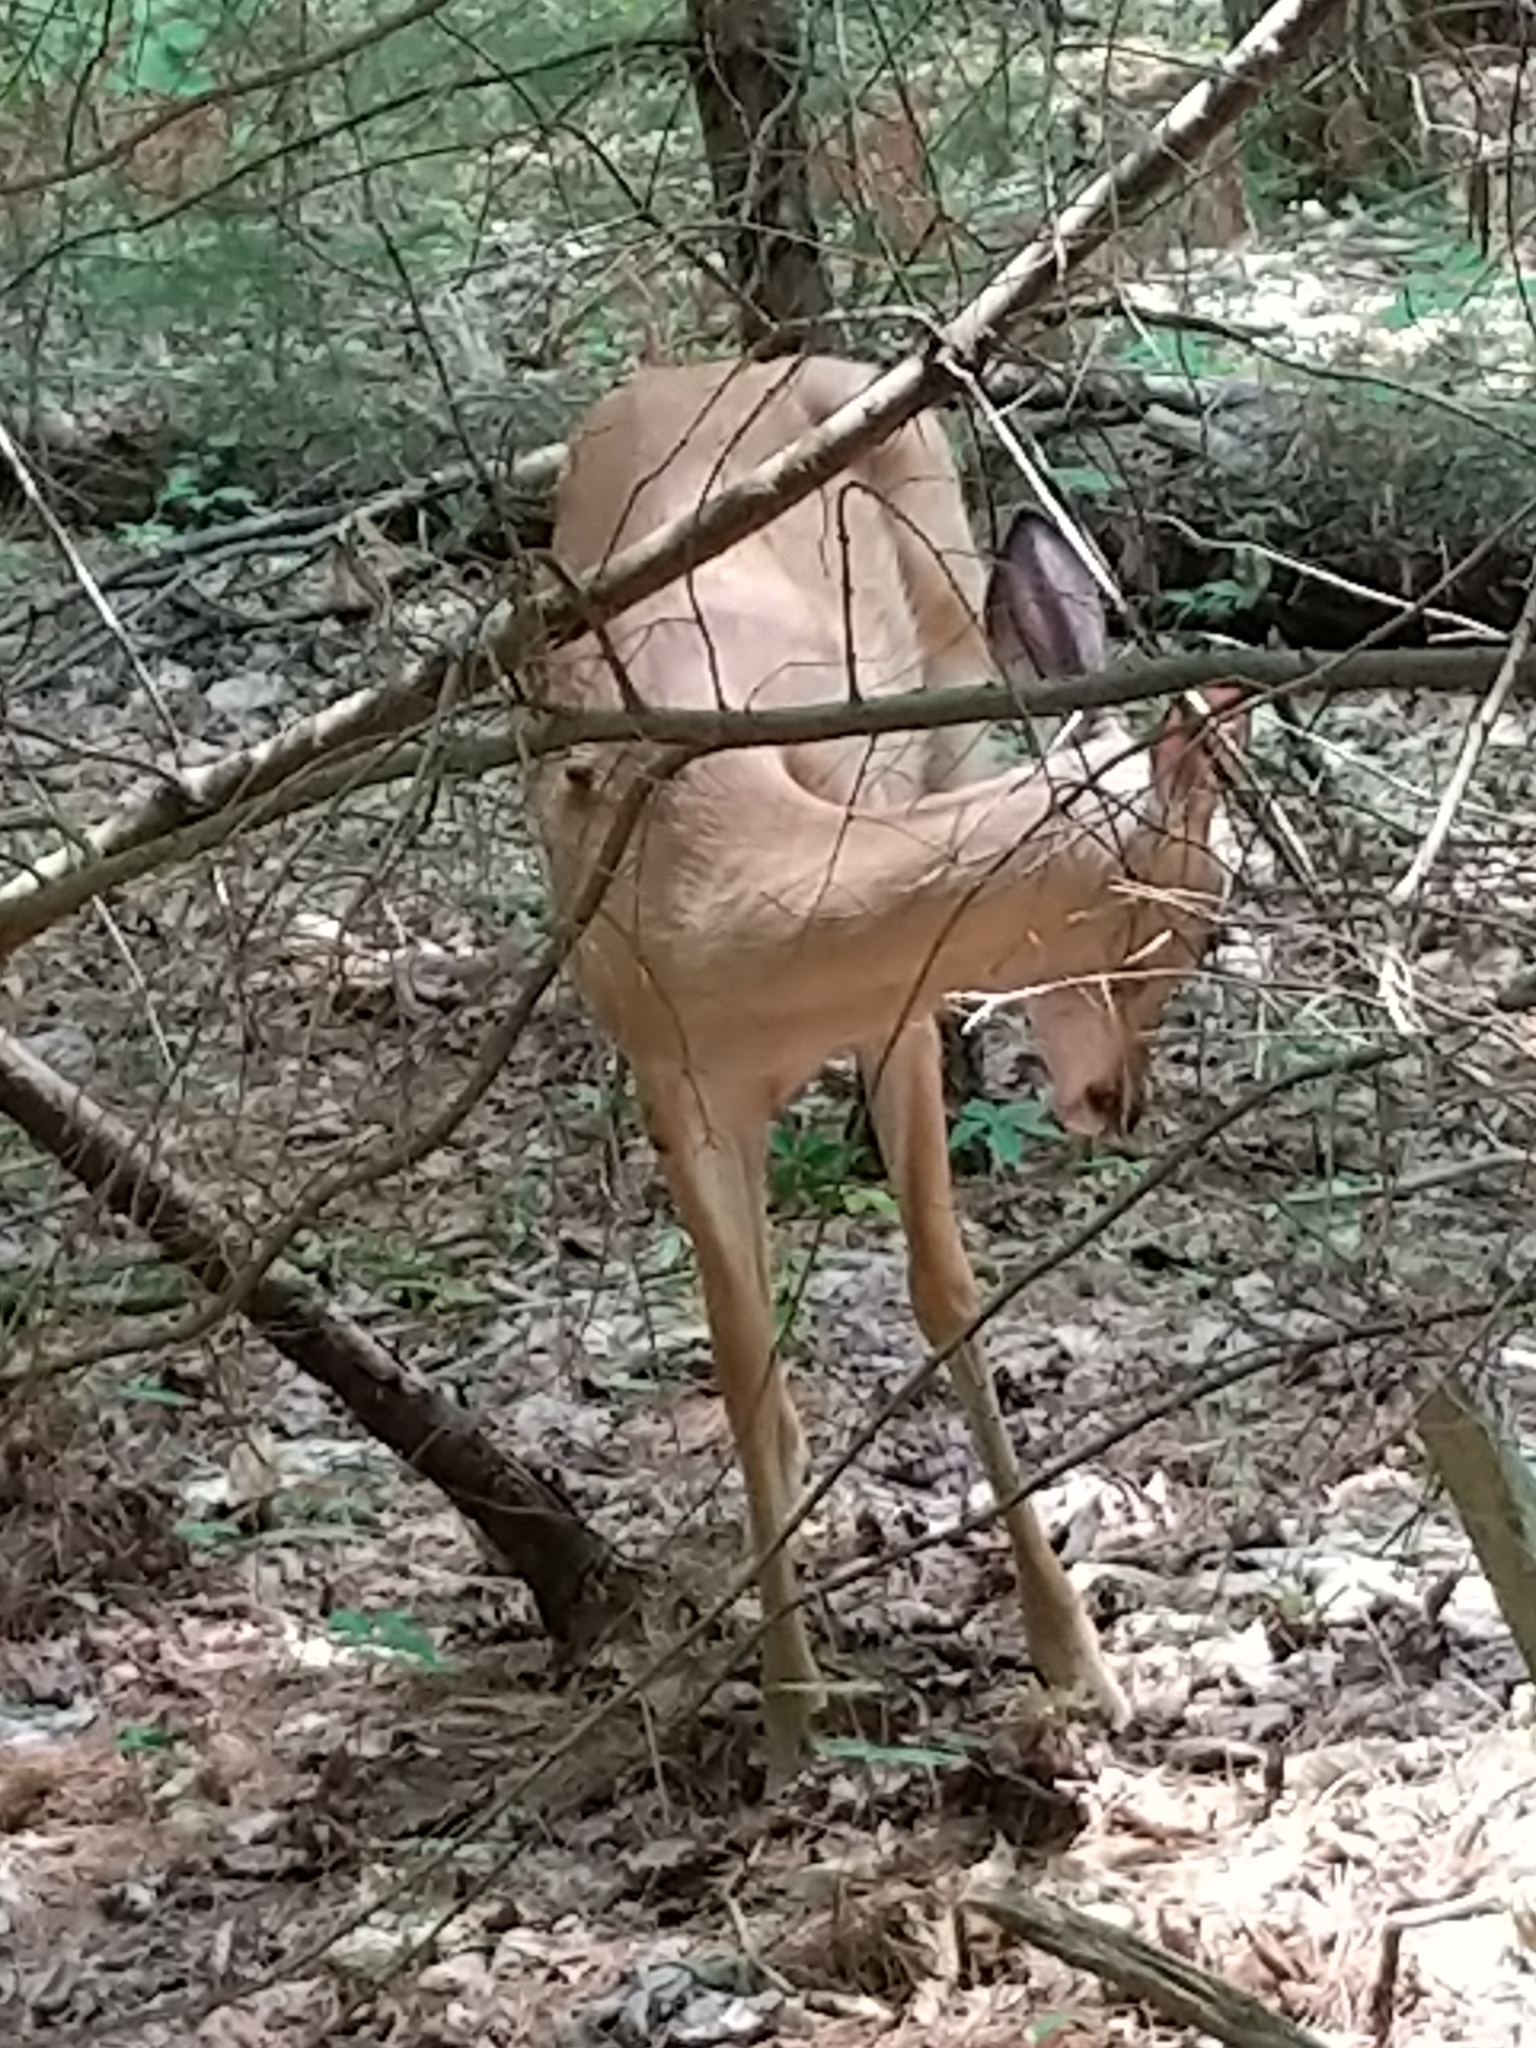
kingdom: Animalia
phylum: Chordata
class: Mammalia
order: Artiodactyla
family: Cervidae
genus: Odocoileus
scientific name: Odocoileus virginianus
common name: White-tailed deer
